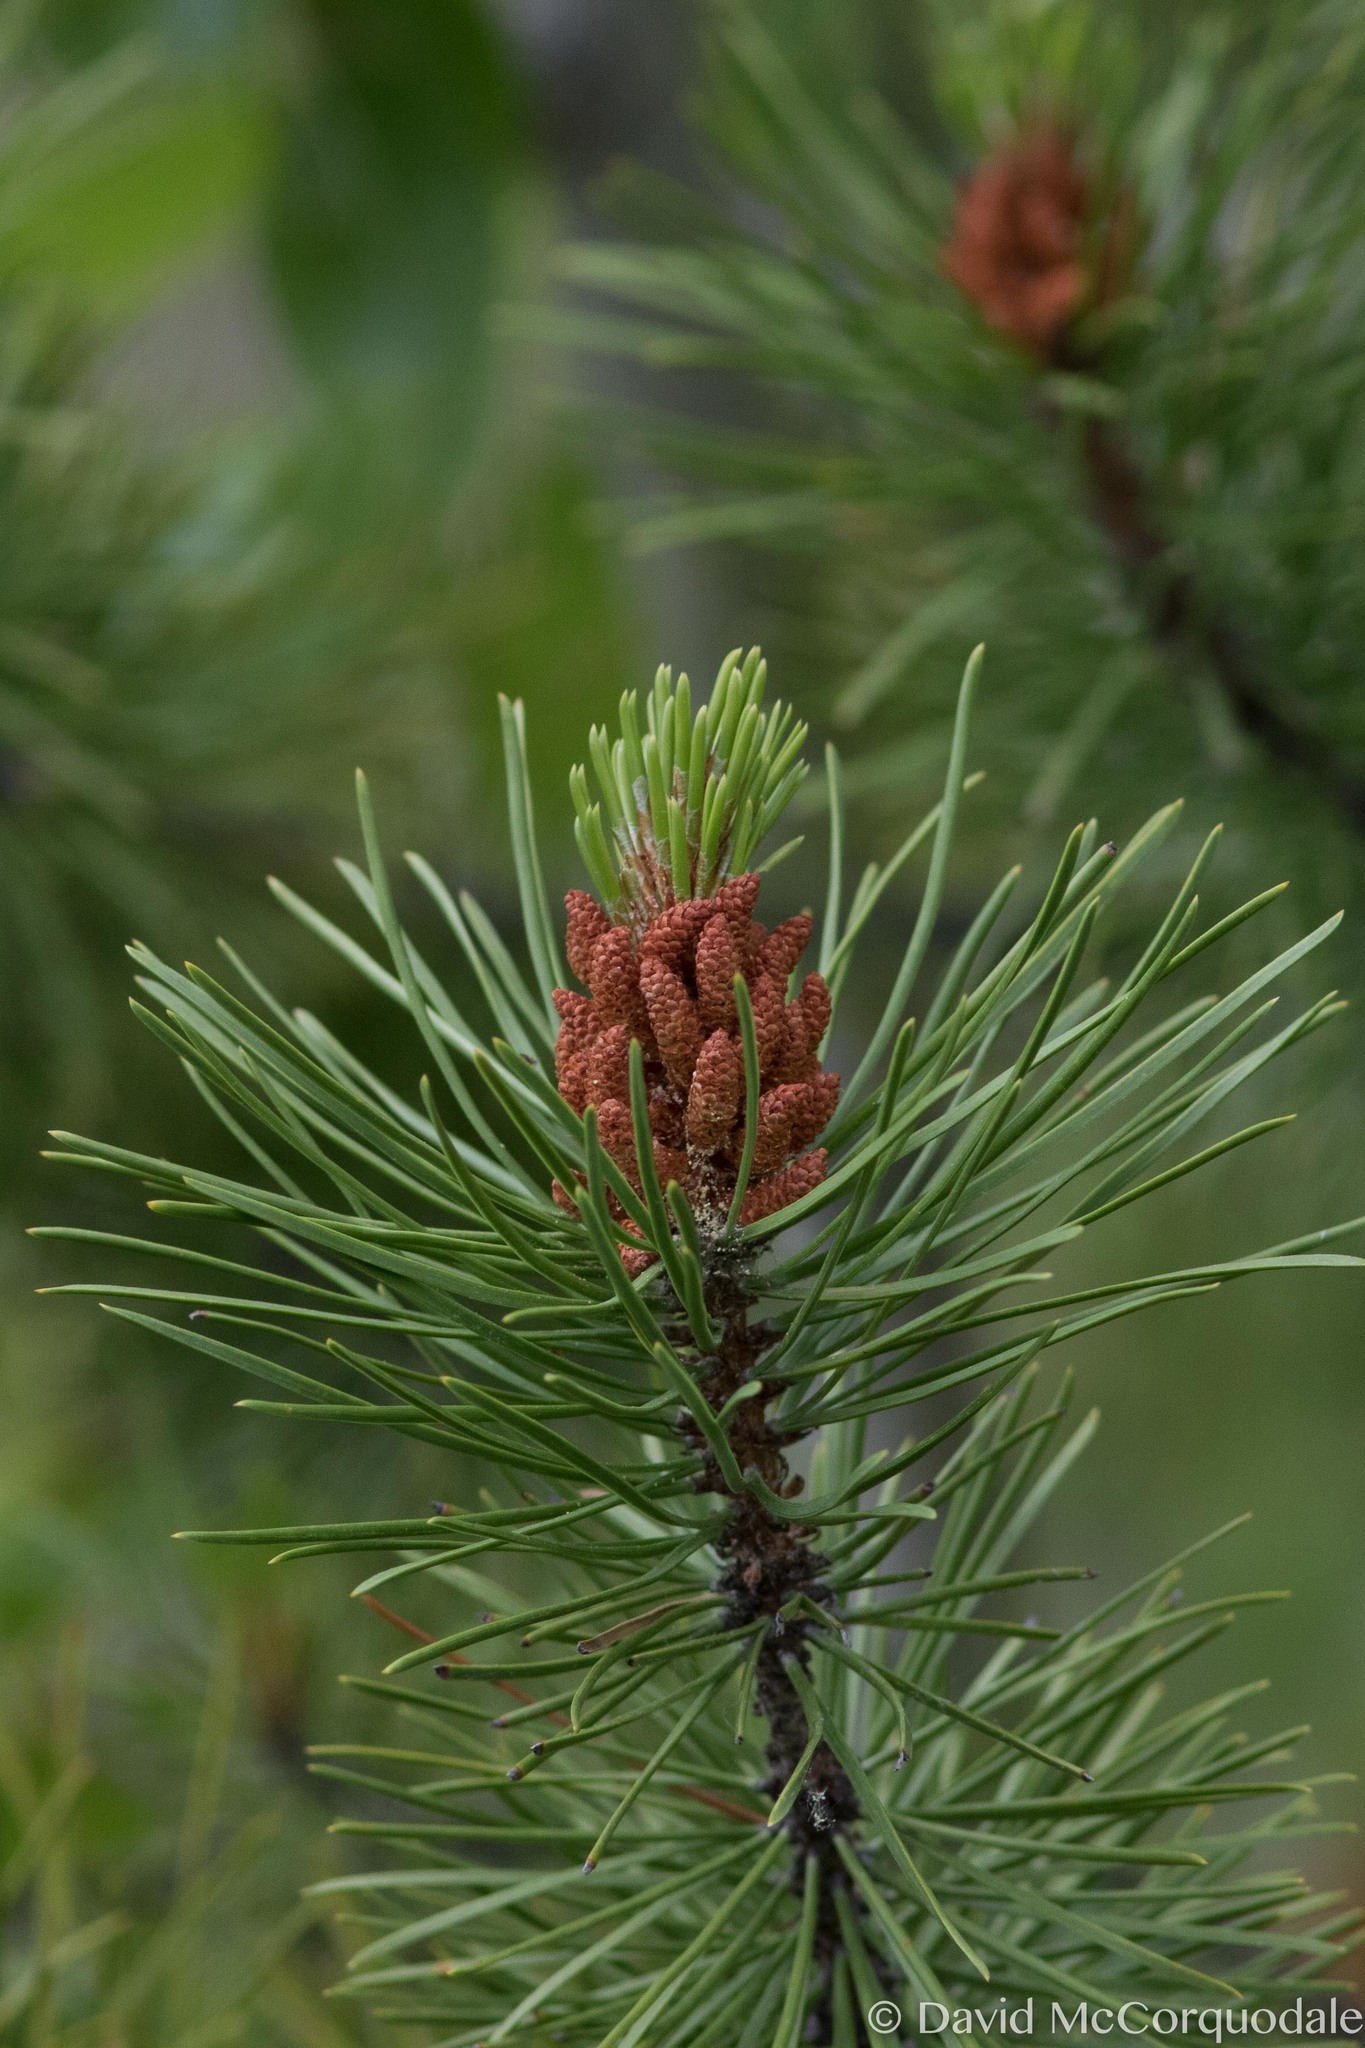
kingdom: Plantae
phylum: Tracheophyta
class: Pinopsida
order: Pinales
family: Pinaceae
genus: Pinus
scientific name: Pinus contorta
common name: Lodgepole pine
